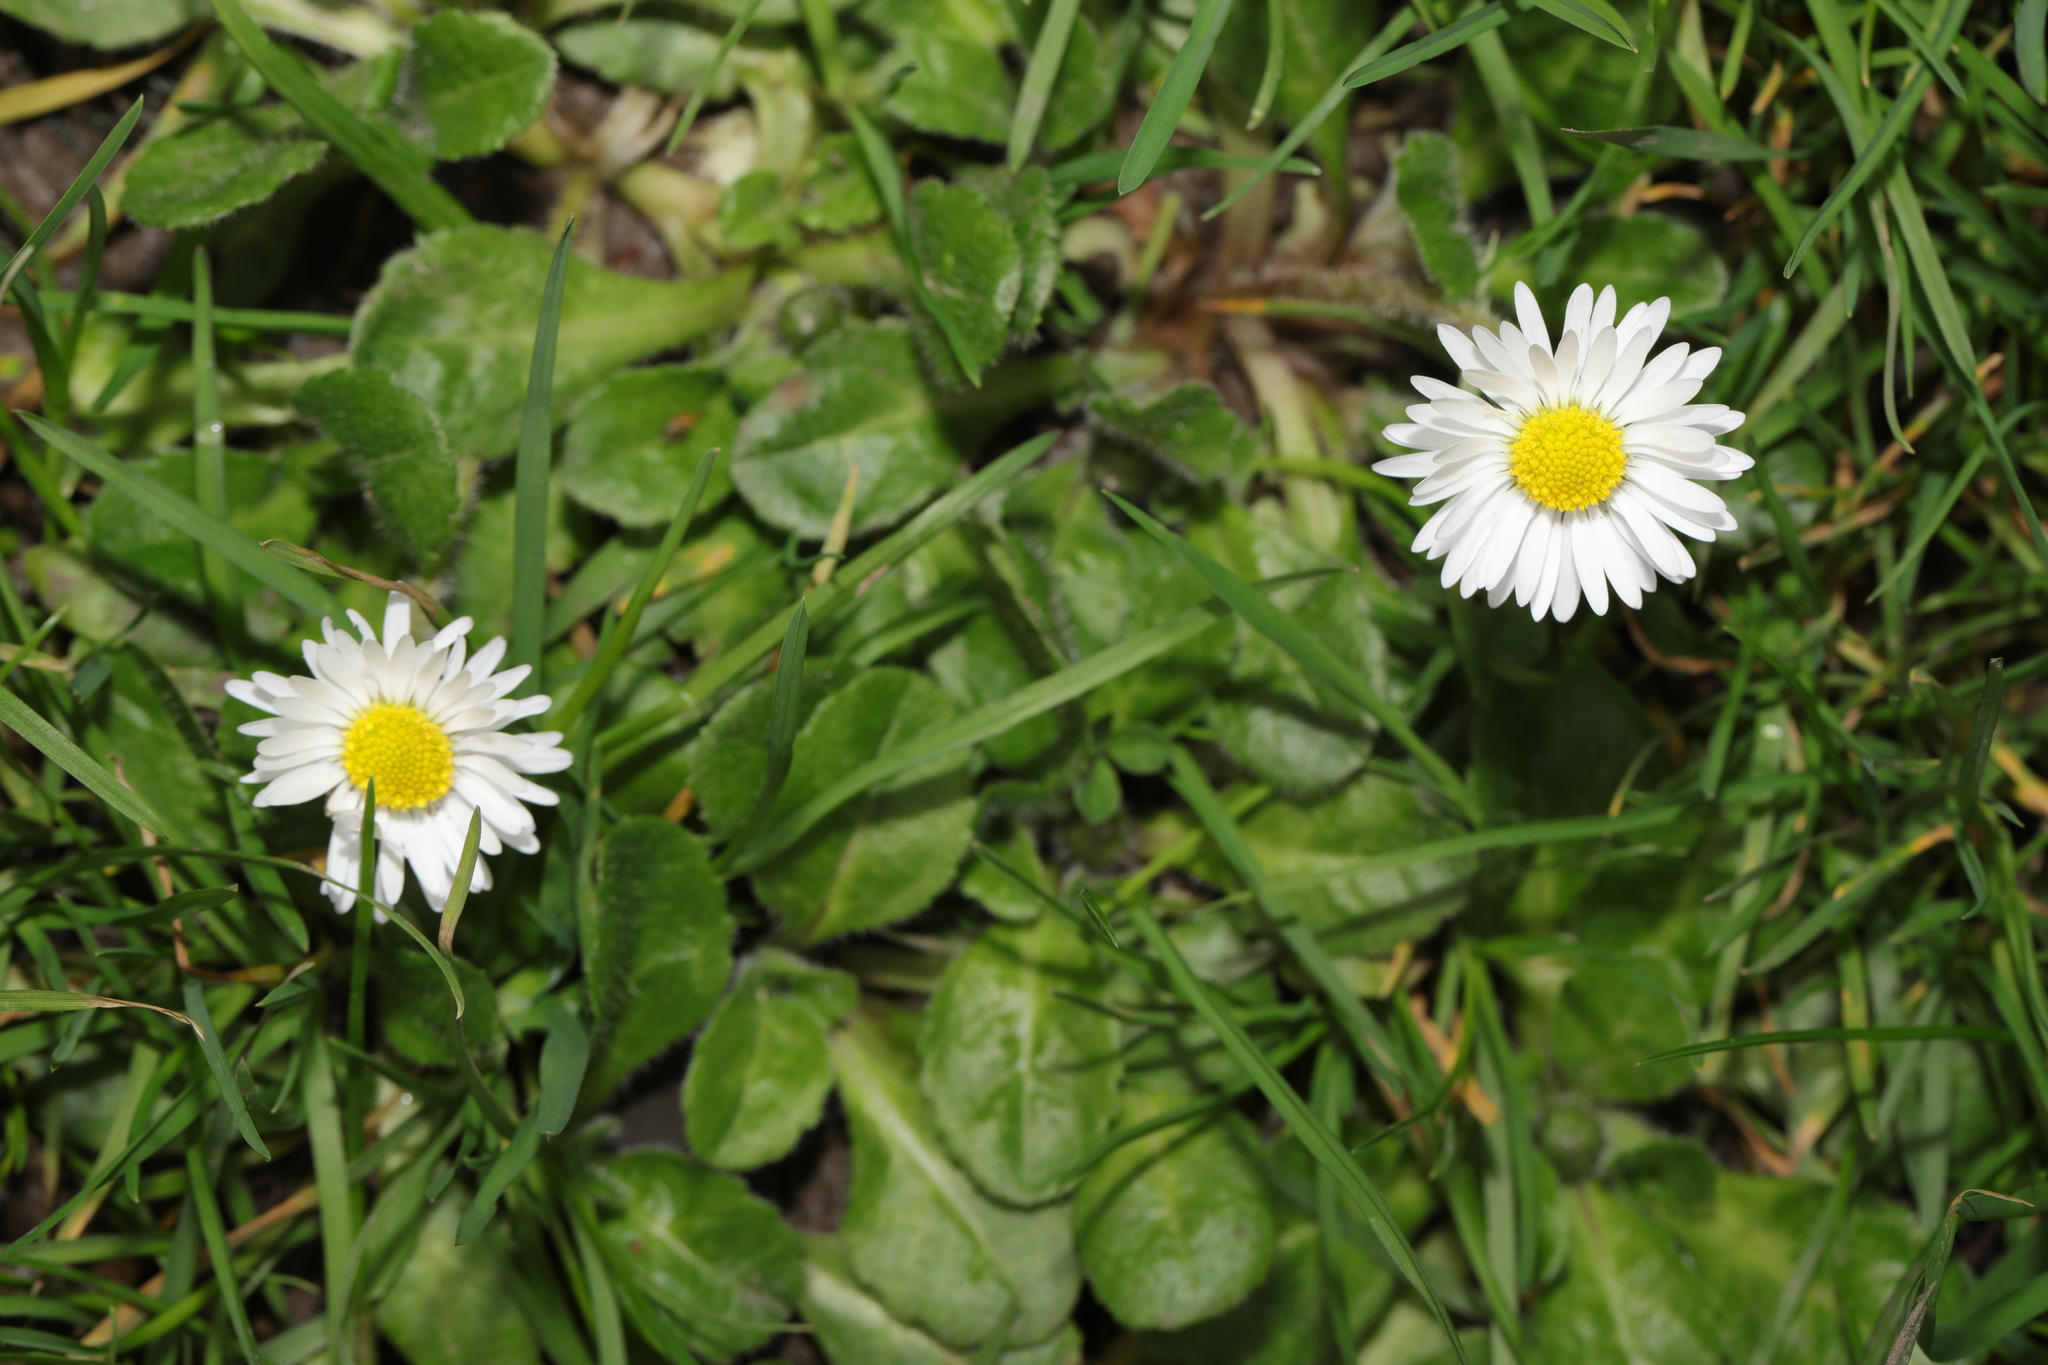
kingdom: Plantae
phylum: Tracheophyta
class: Magnoliopsida
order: Asterales
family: Asteraceae
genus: Bellis
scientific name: Bellis perennis
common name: Lawndaisy
